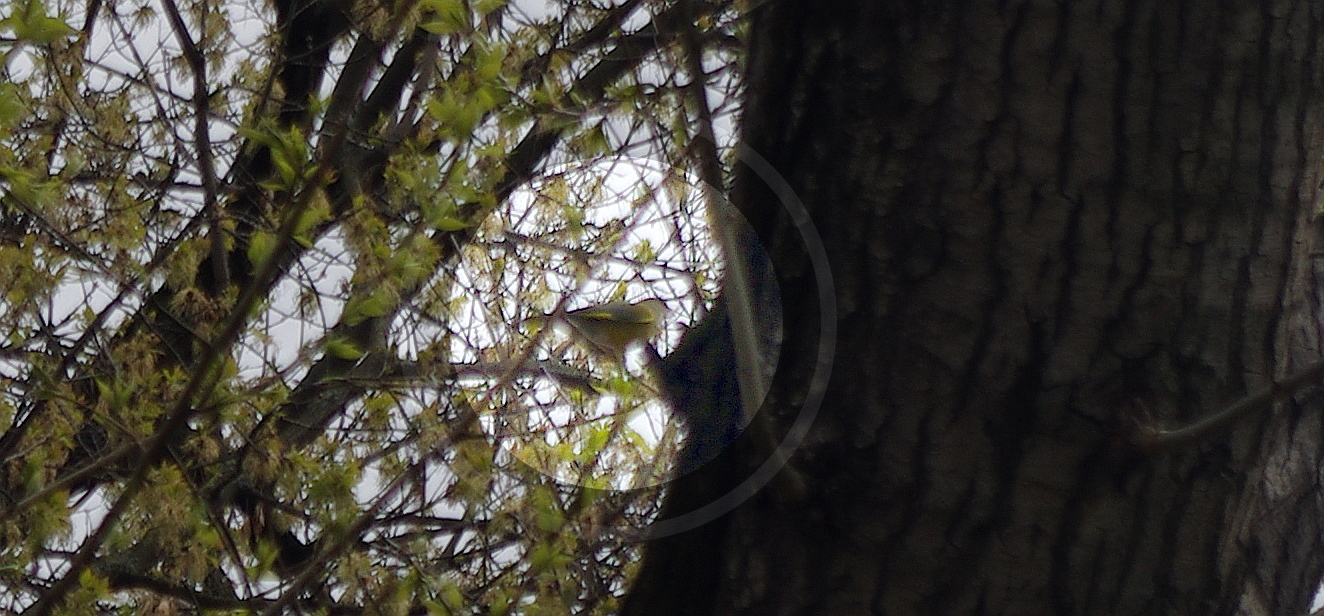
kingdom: Plantae
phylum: Tracheophyta
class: Liliopsida
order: Poales
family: Poaceae
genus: Chloris
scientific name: Chloris chloris
